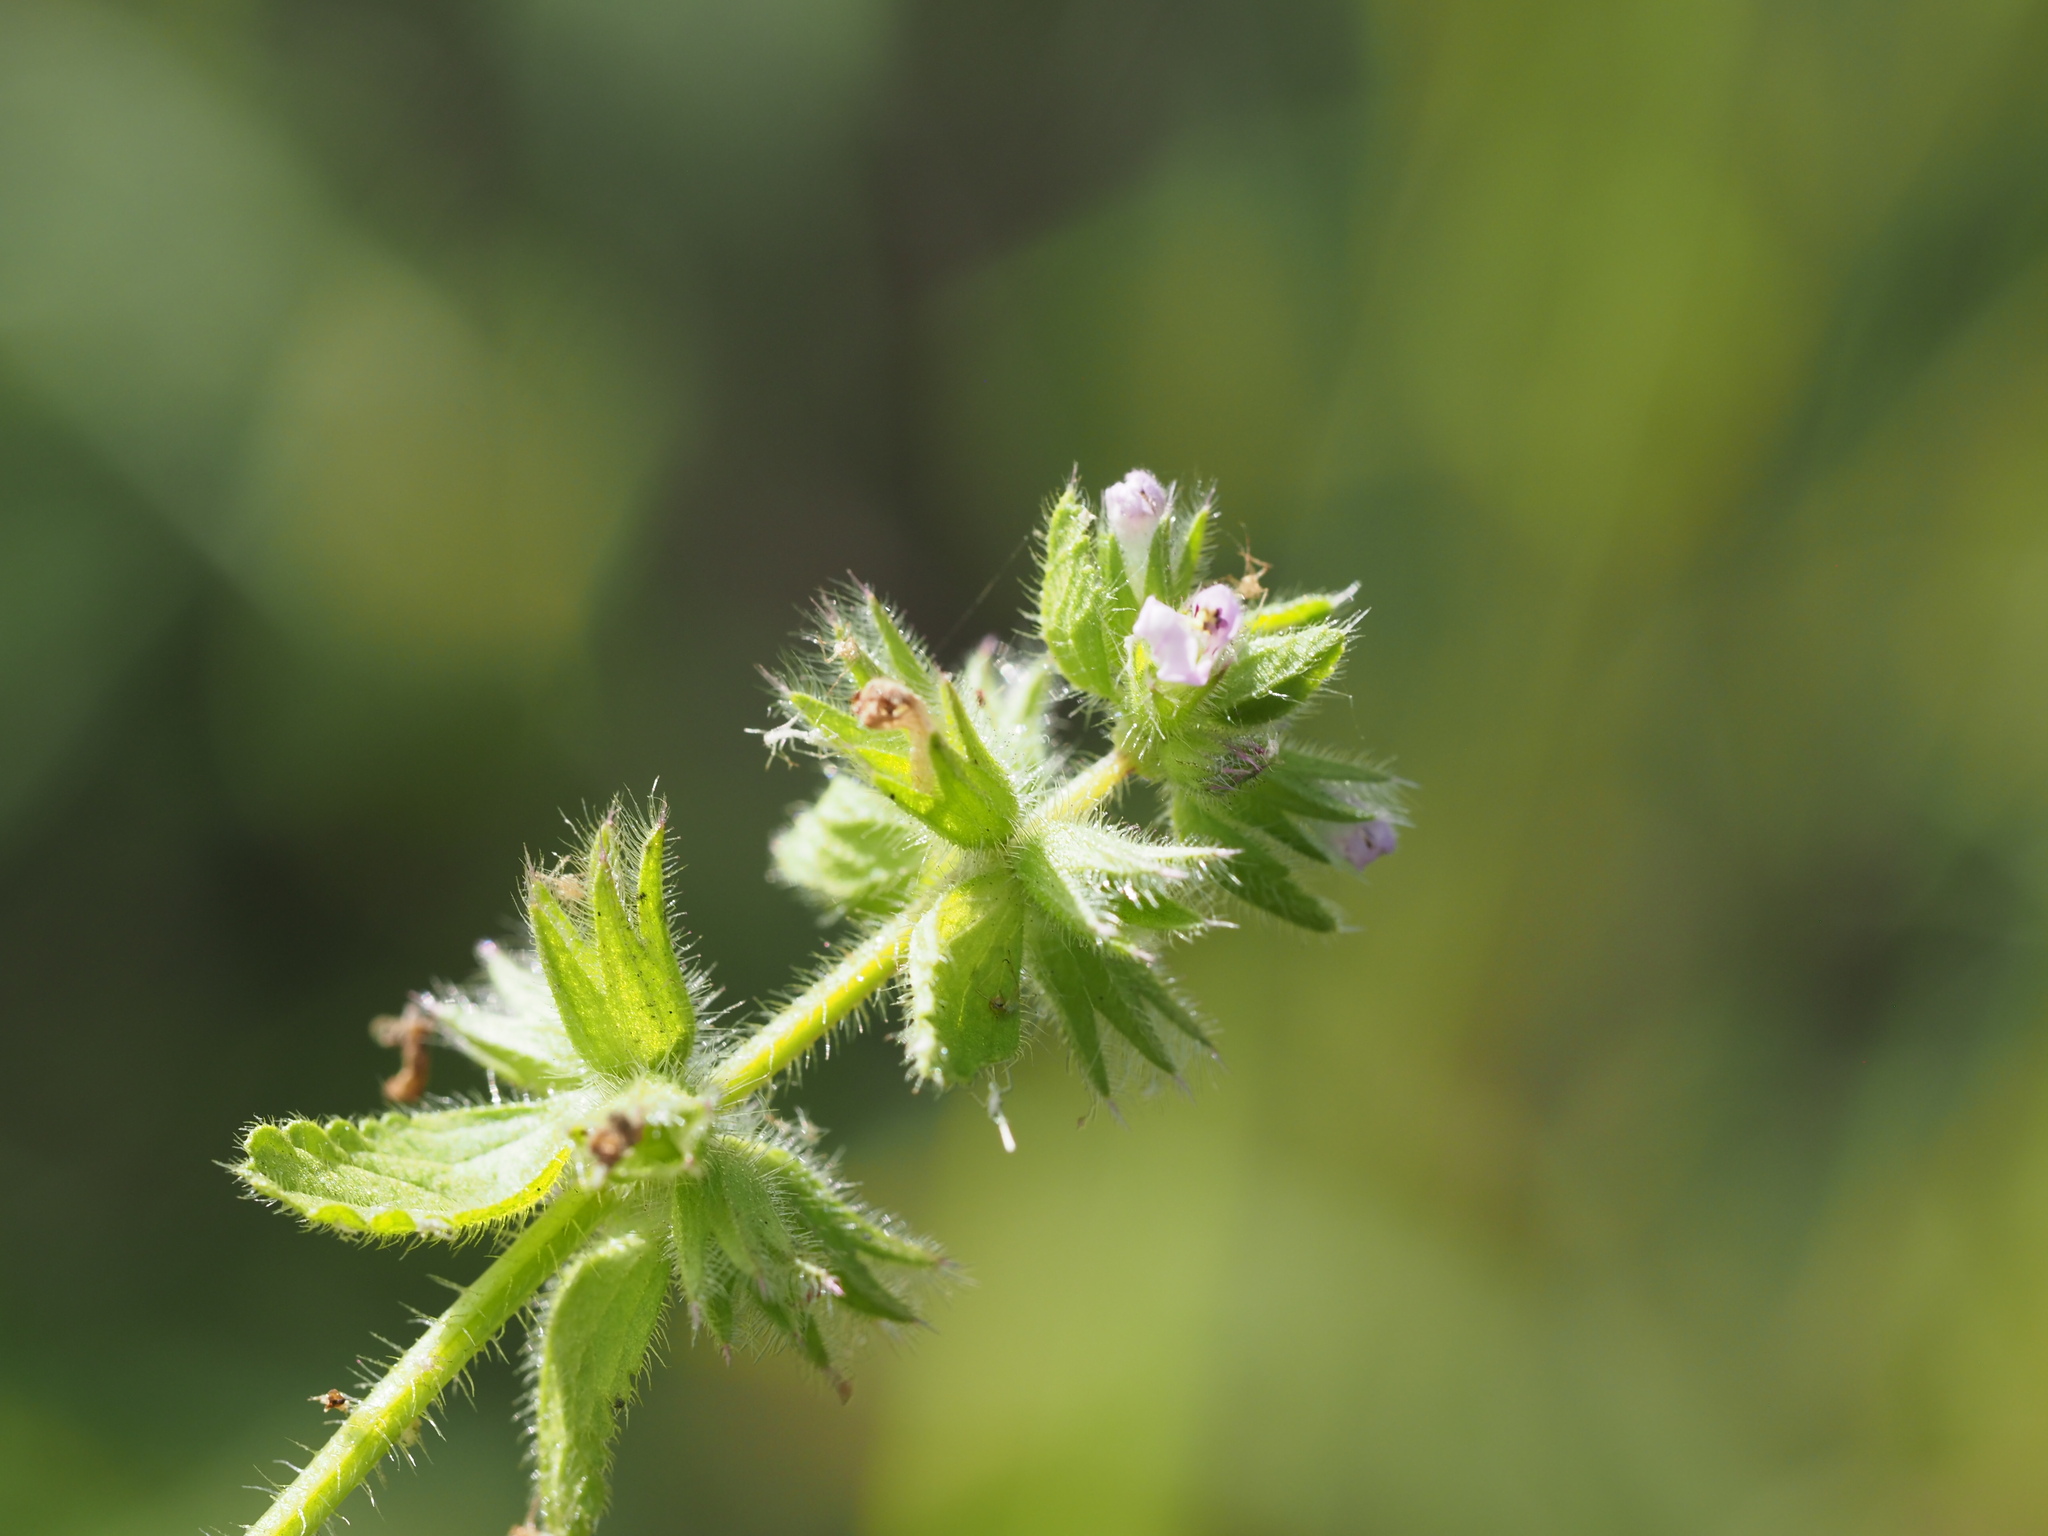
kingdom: Plantae
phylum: Tracheophyta
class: Magnoliopsida
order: Lamiales
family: Lamiaceae
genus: Stachys
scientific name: Stachys arvensis
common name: Field woundwort
